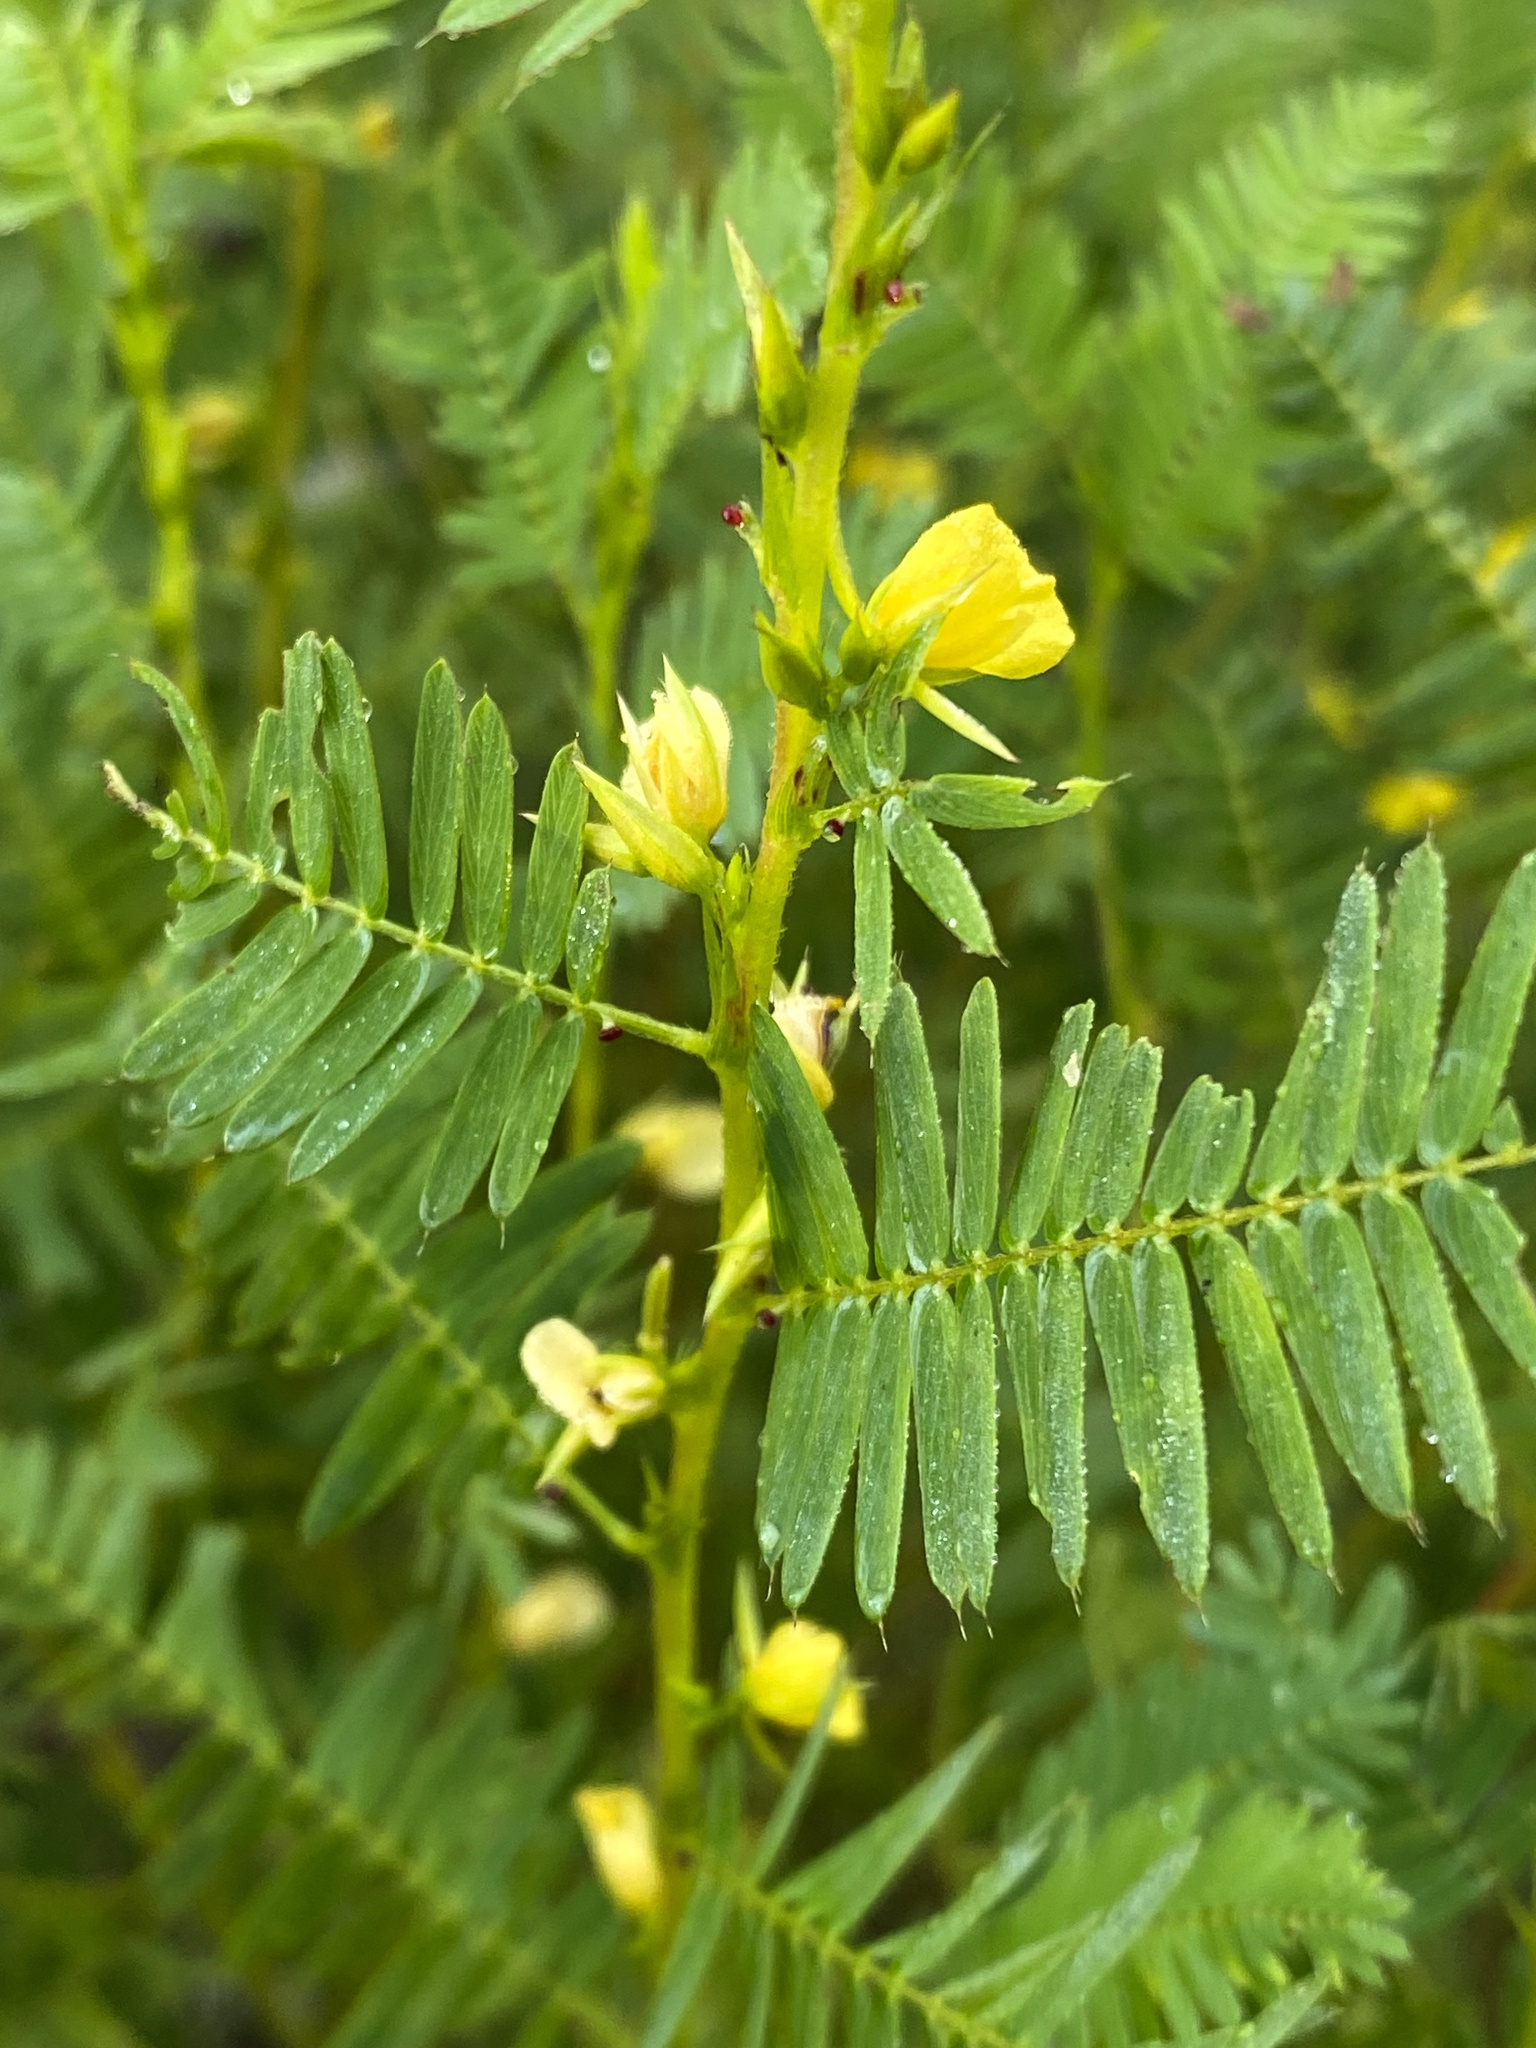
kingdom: Plantae
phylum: Tracheophyta
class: Magnoliopsida
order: Fabales
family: Fabaceae
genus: Chamaecrista
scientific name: Chamaecrista nictitans
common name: Sensitive cassia
